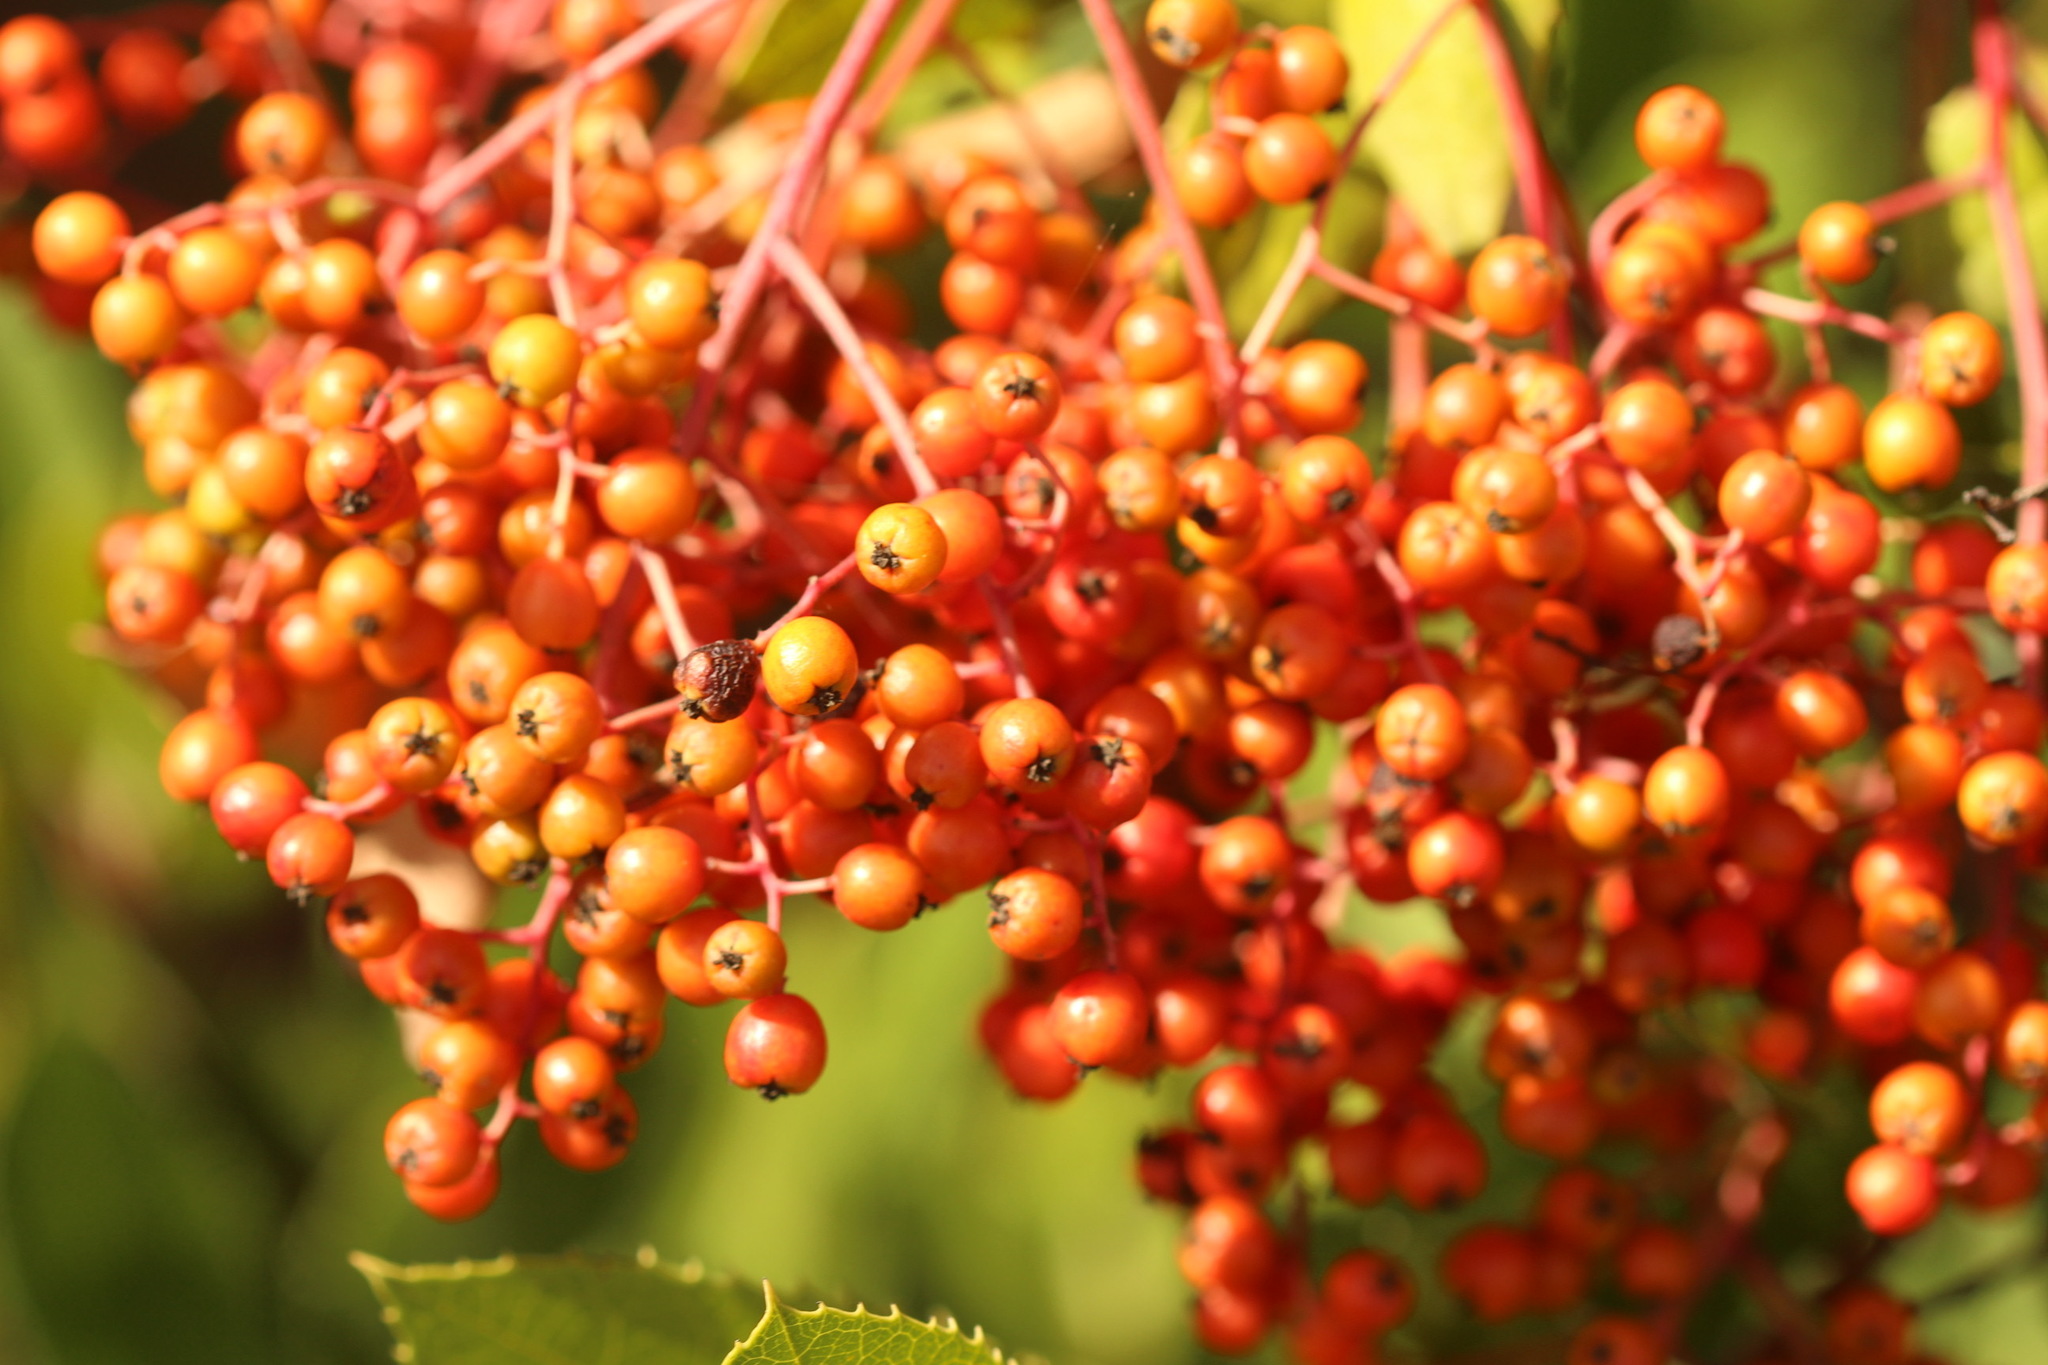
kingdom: Plantae
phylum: Tracheophyta
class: Magnoliopsida
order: Rosales
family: Rosaceae
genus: Heteromeles
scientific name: Heteromeles arbutifolia
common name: California-holly
